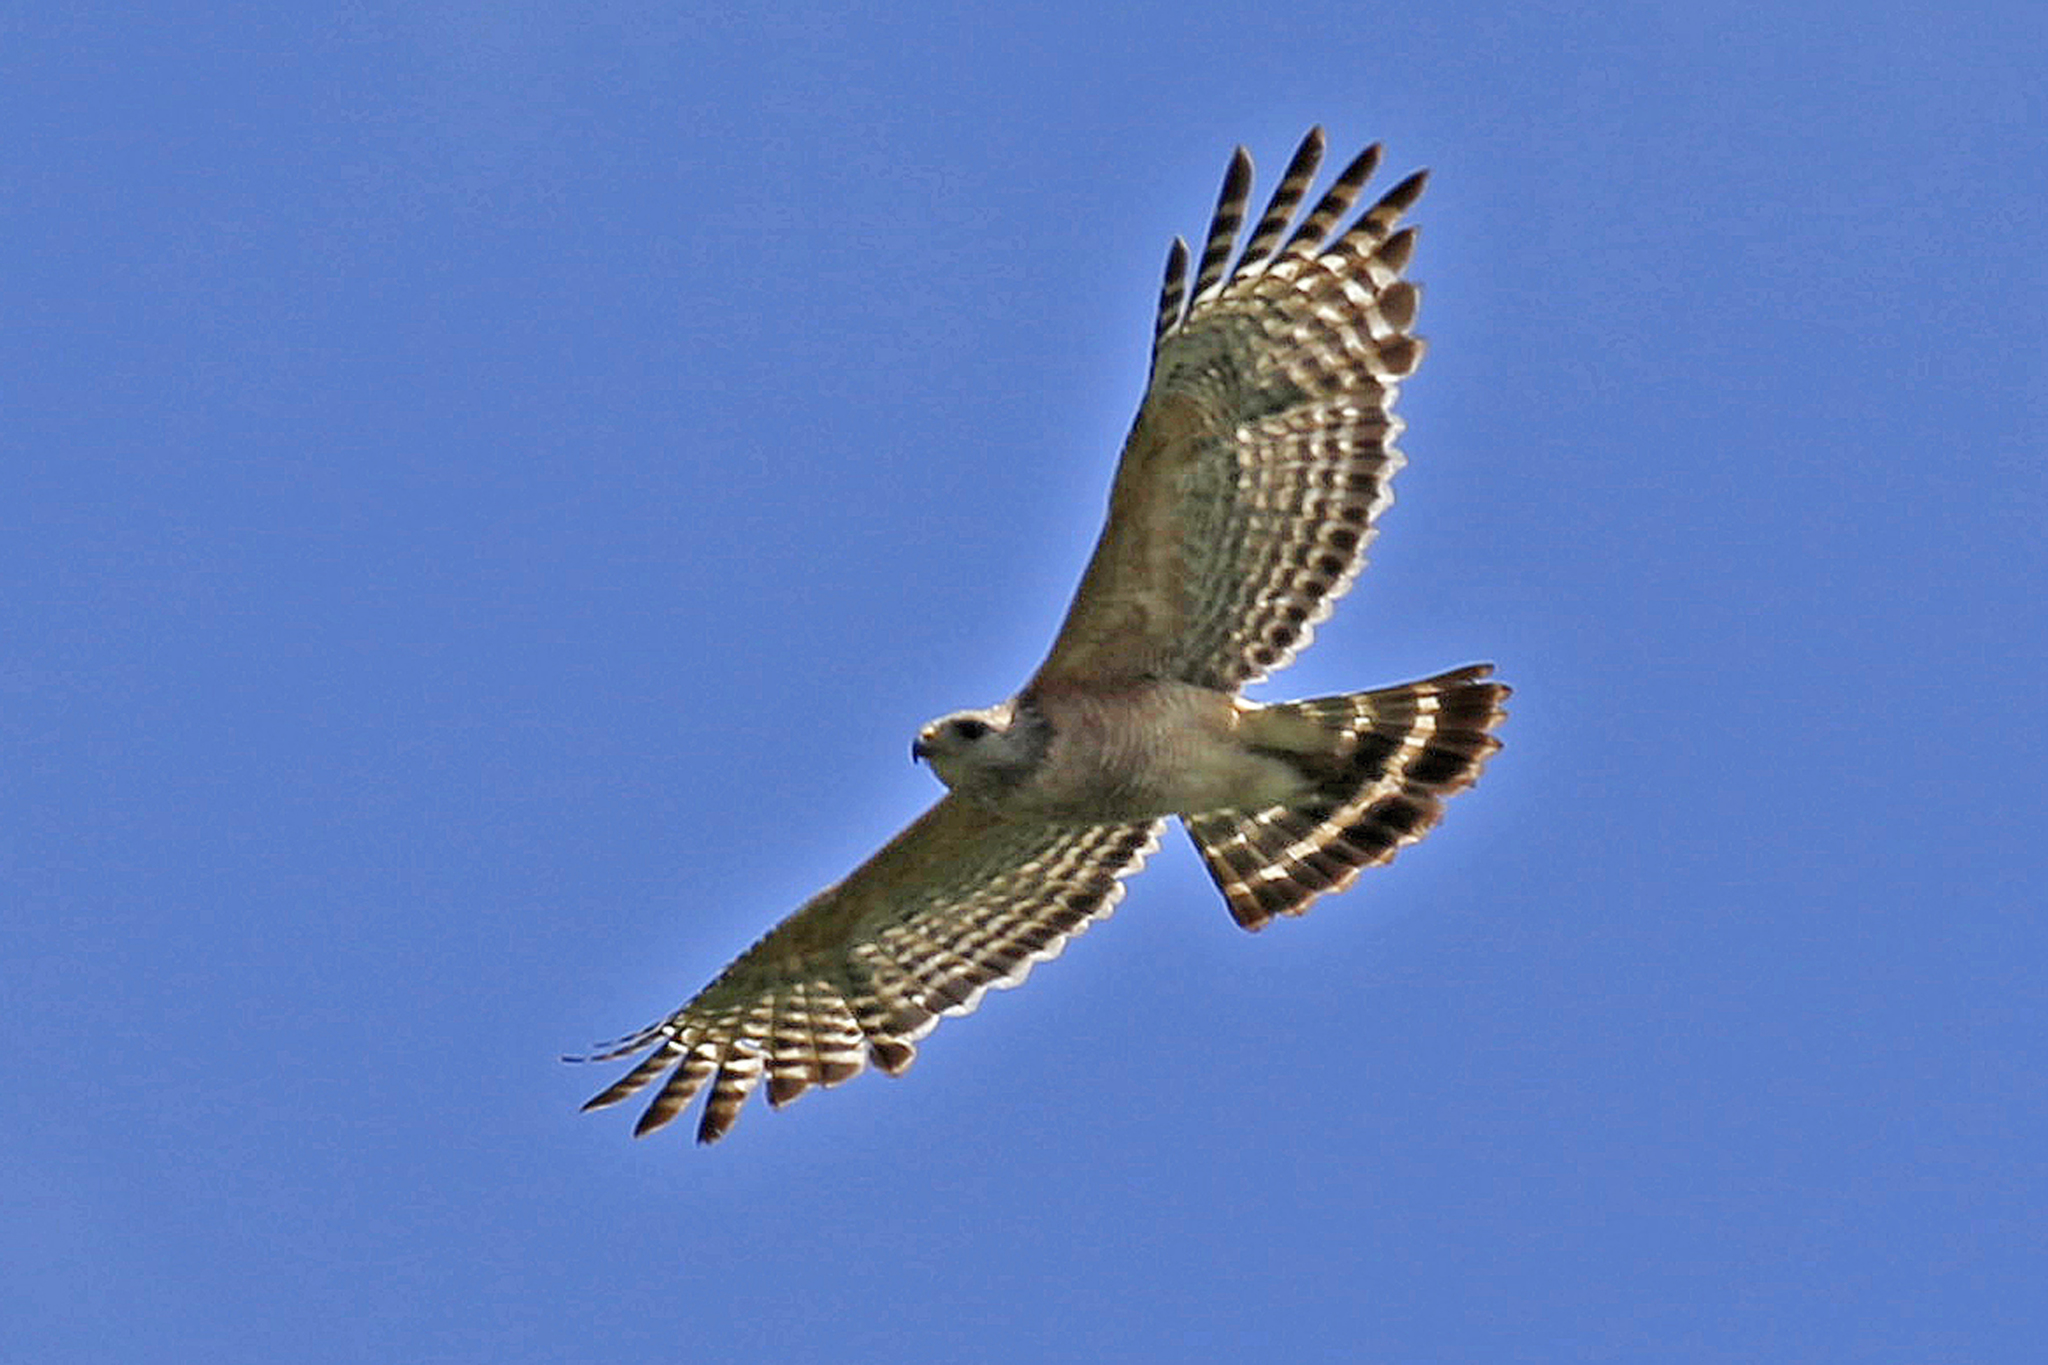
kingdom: Animalia
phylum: Chordata
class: Aves
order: Accipitriformes
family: Accipitridae
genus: Buteo
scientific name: Buteo lineatus
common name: Red-shouldered hawk
